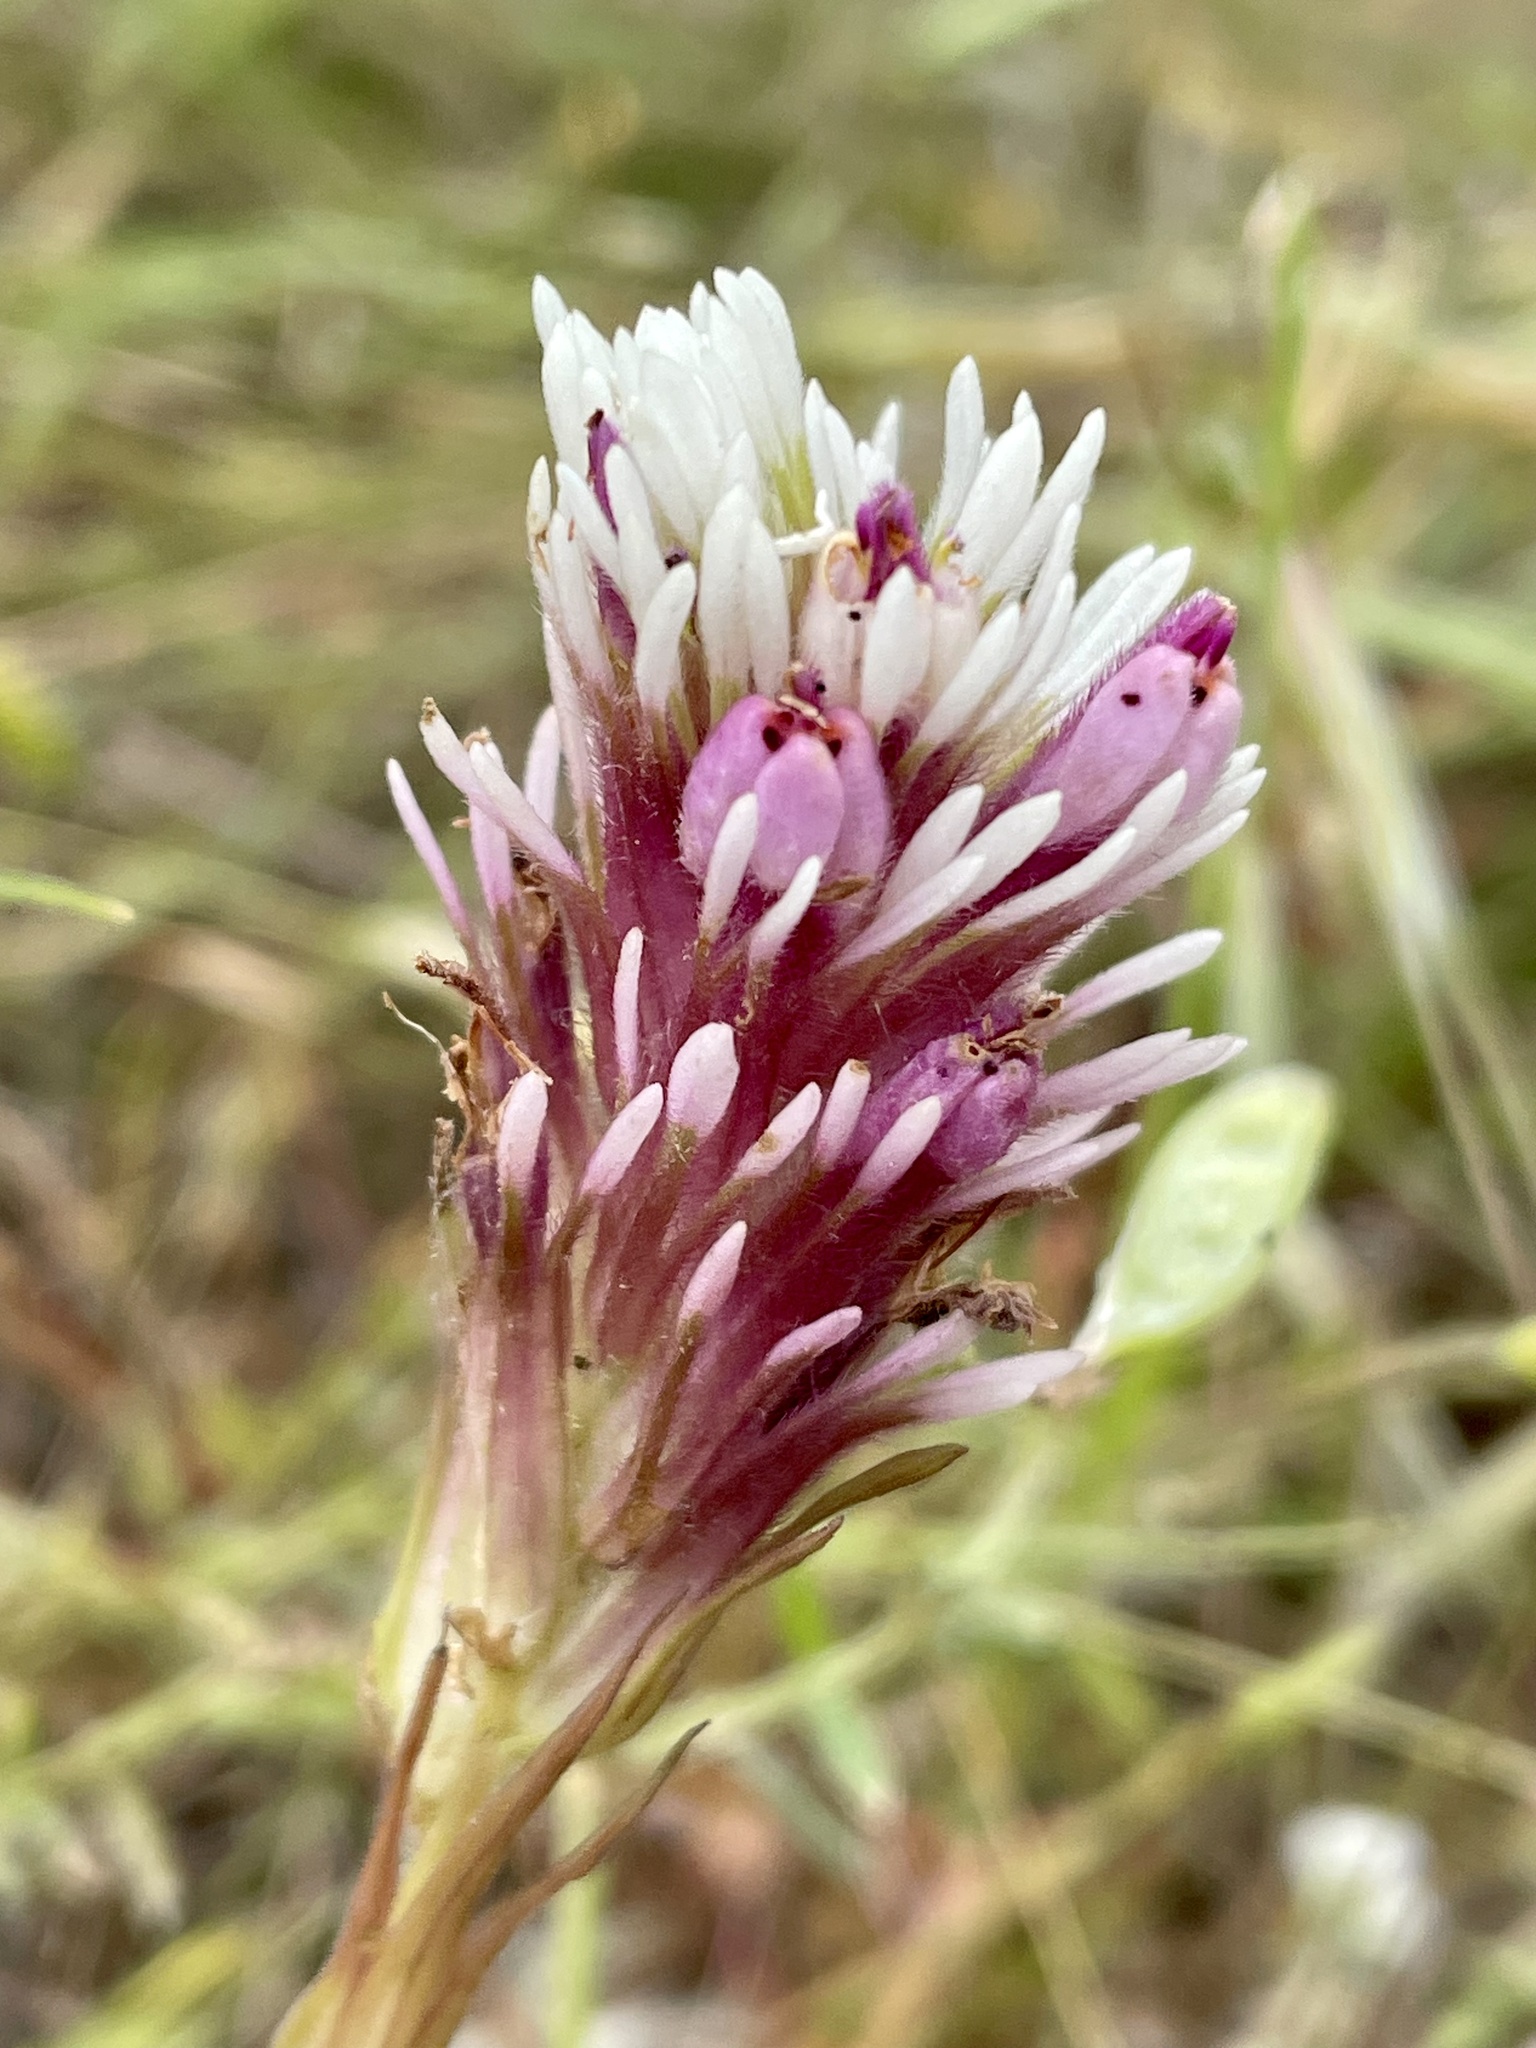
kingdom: Plantae
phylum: Tracheophyta
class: Magnoliopsida
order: Lamiales
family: Orobanchaceae
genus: Castilleja
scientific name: Castilleja densiflora
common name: Dense-flower indian paintbrush
